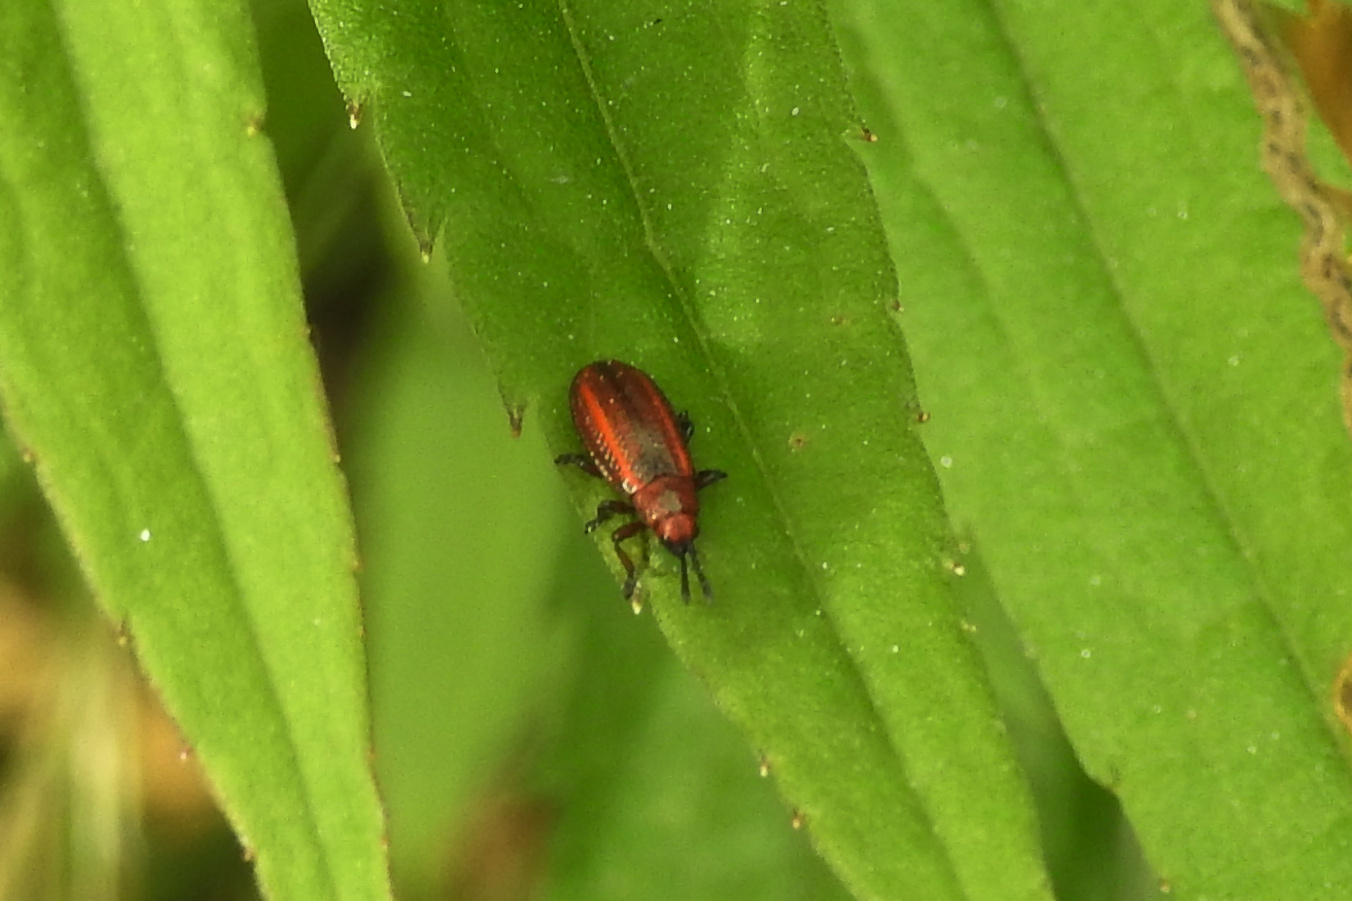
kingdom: Animalia
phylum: Arthropoda
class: Insecta
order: Coleoptera
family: Chrysomelidae
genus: Microrhopala
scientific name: Microrhopala vittata
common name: Goldenrod leaf miner beetle
